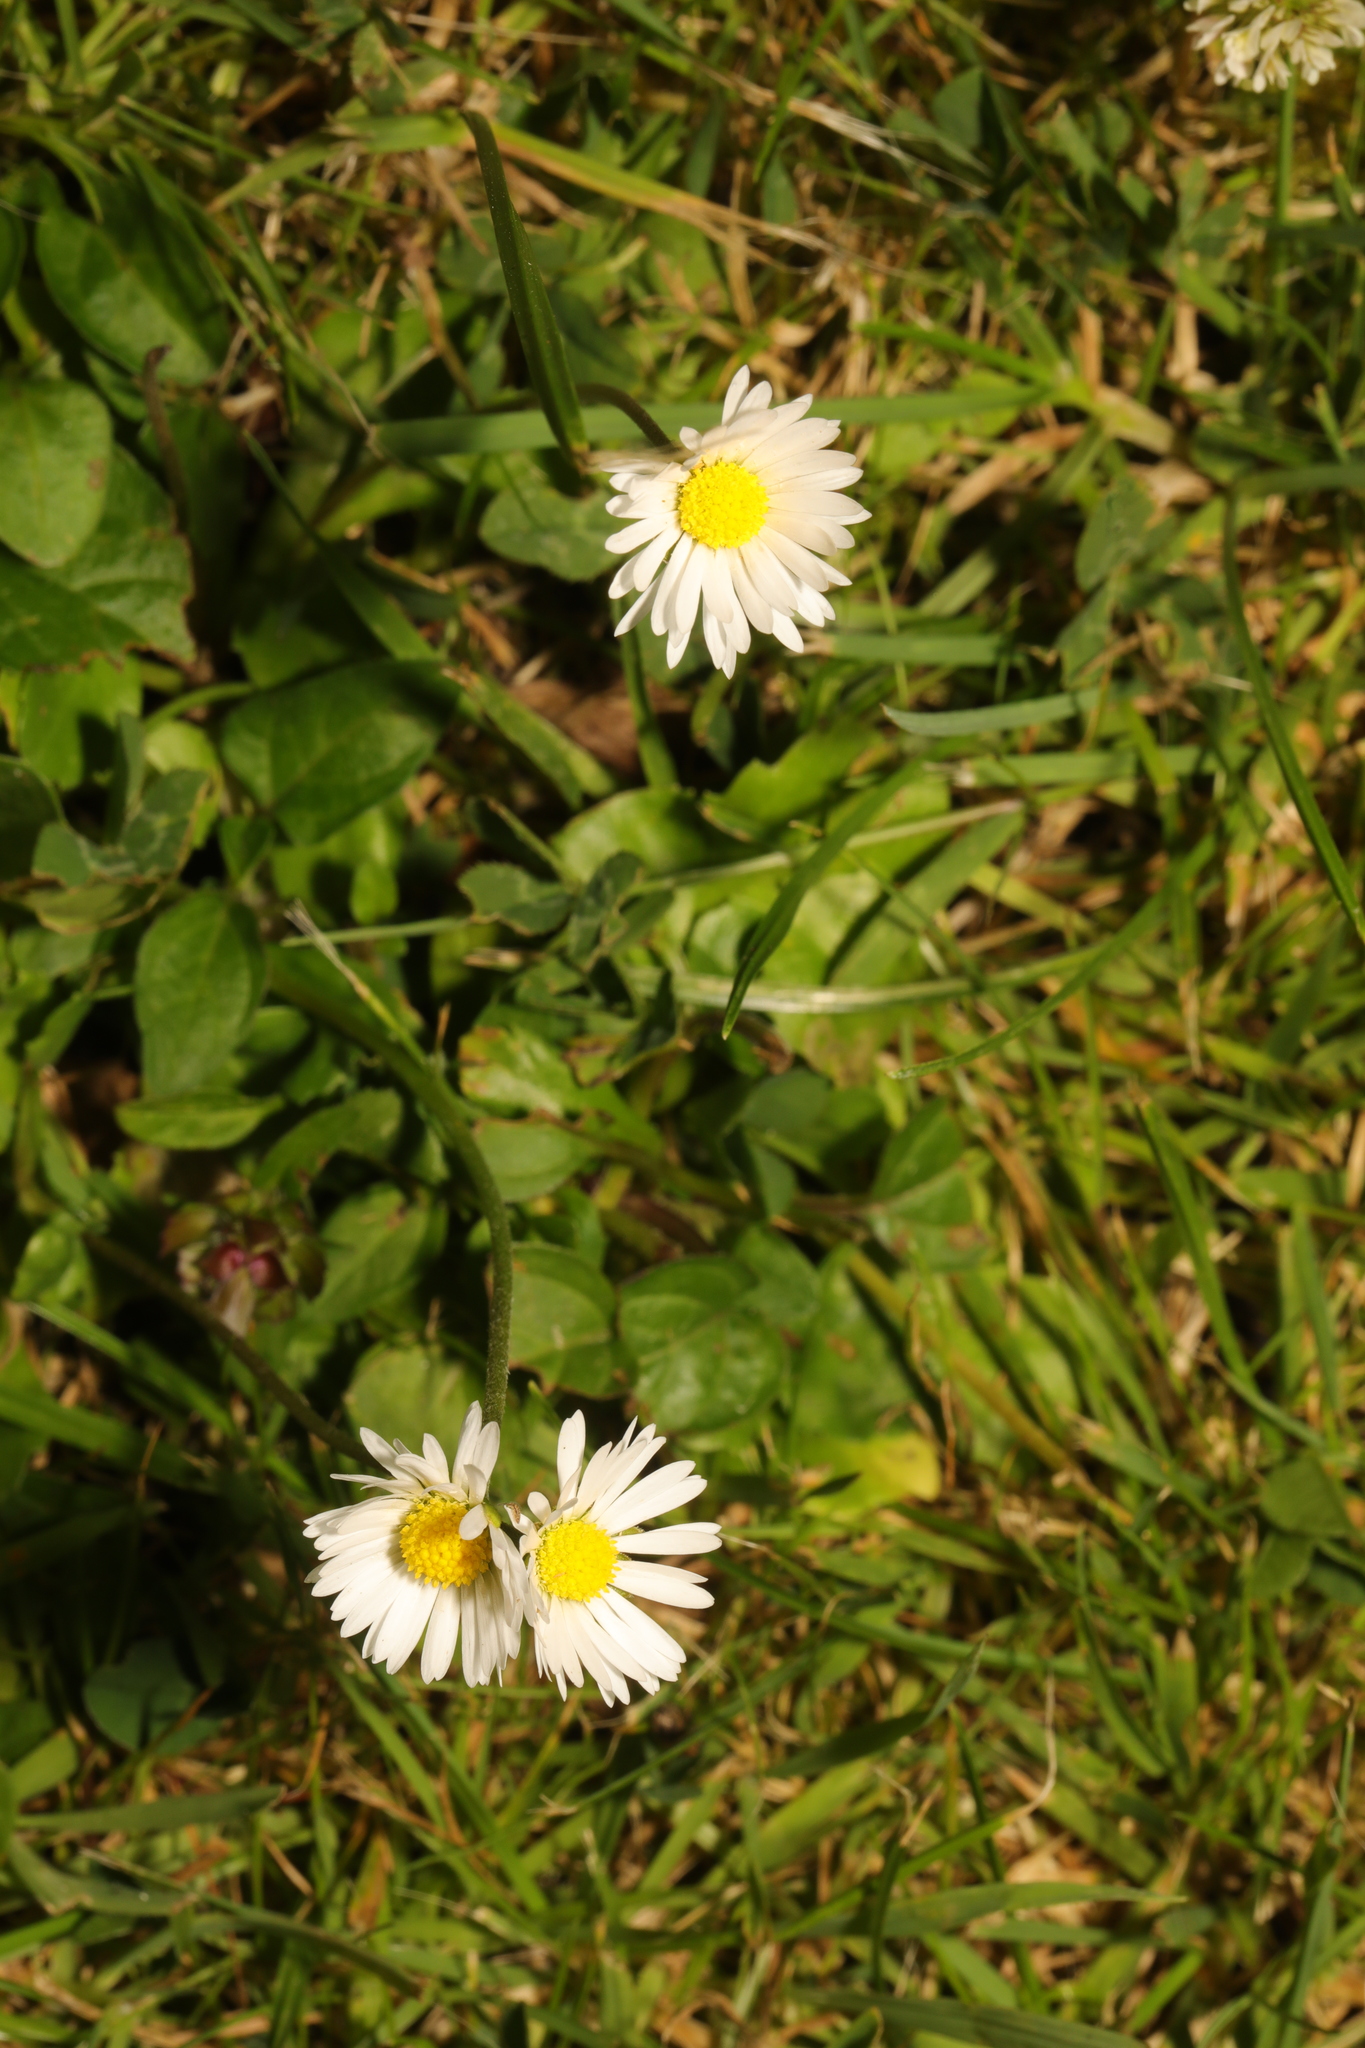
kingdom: Plantae
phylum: Tracheophyta
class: Magnoliopsida
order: Asterales
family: Asteraceae
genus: Bellis
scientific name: Bellis perennis
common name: Lawndaisy
